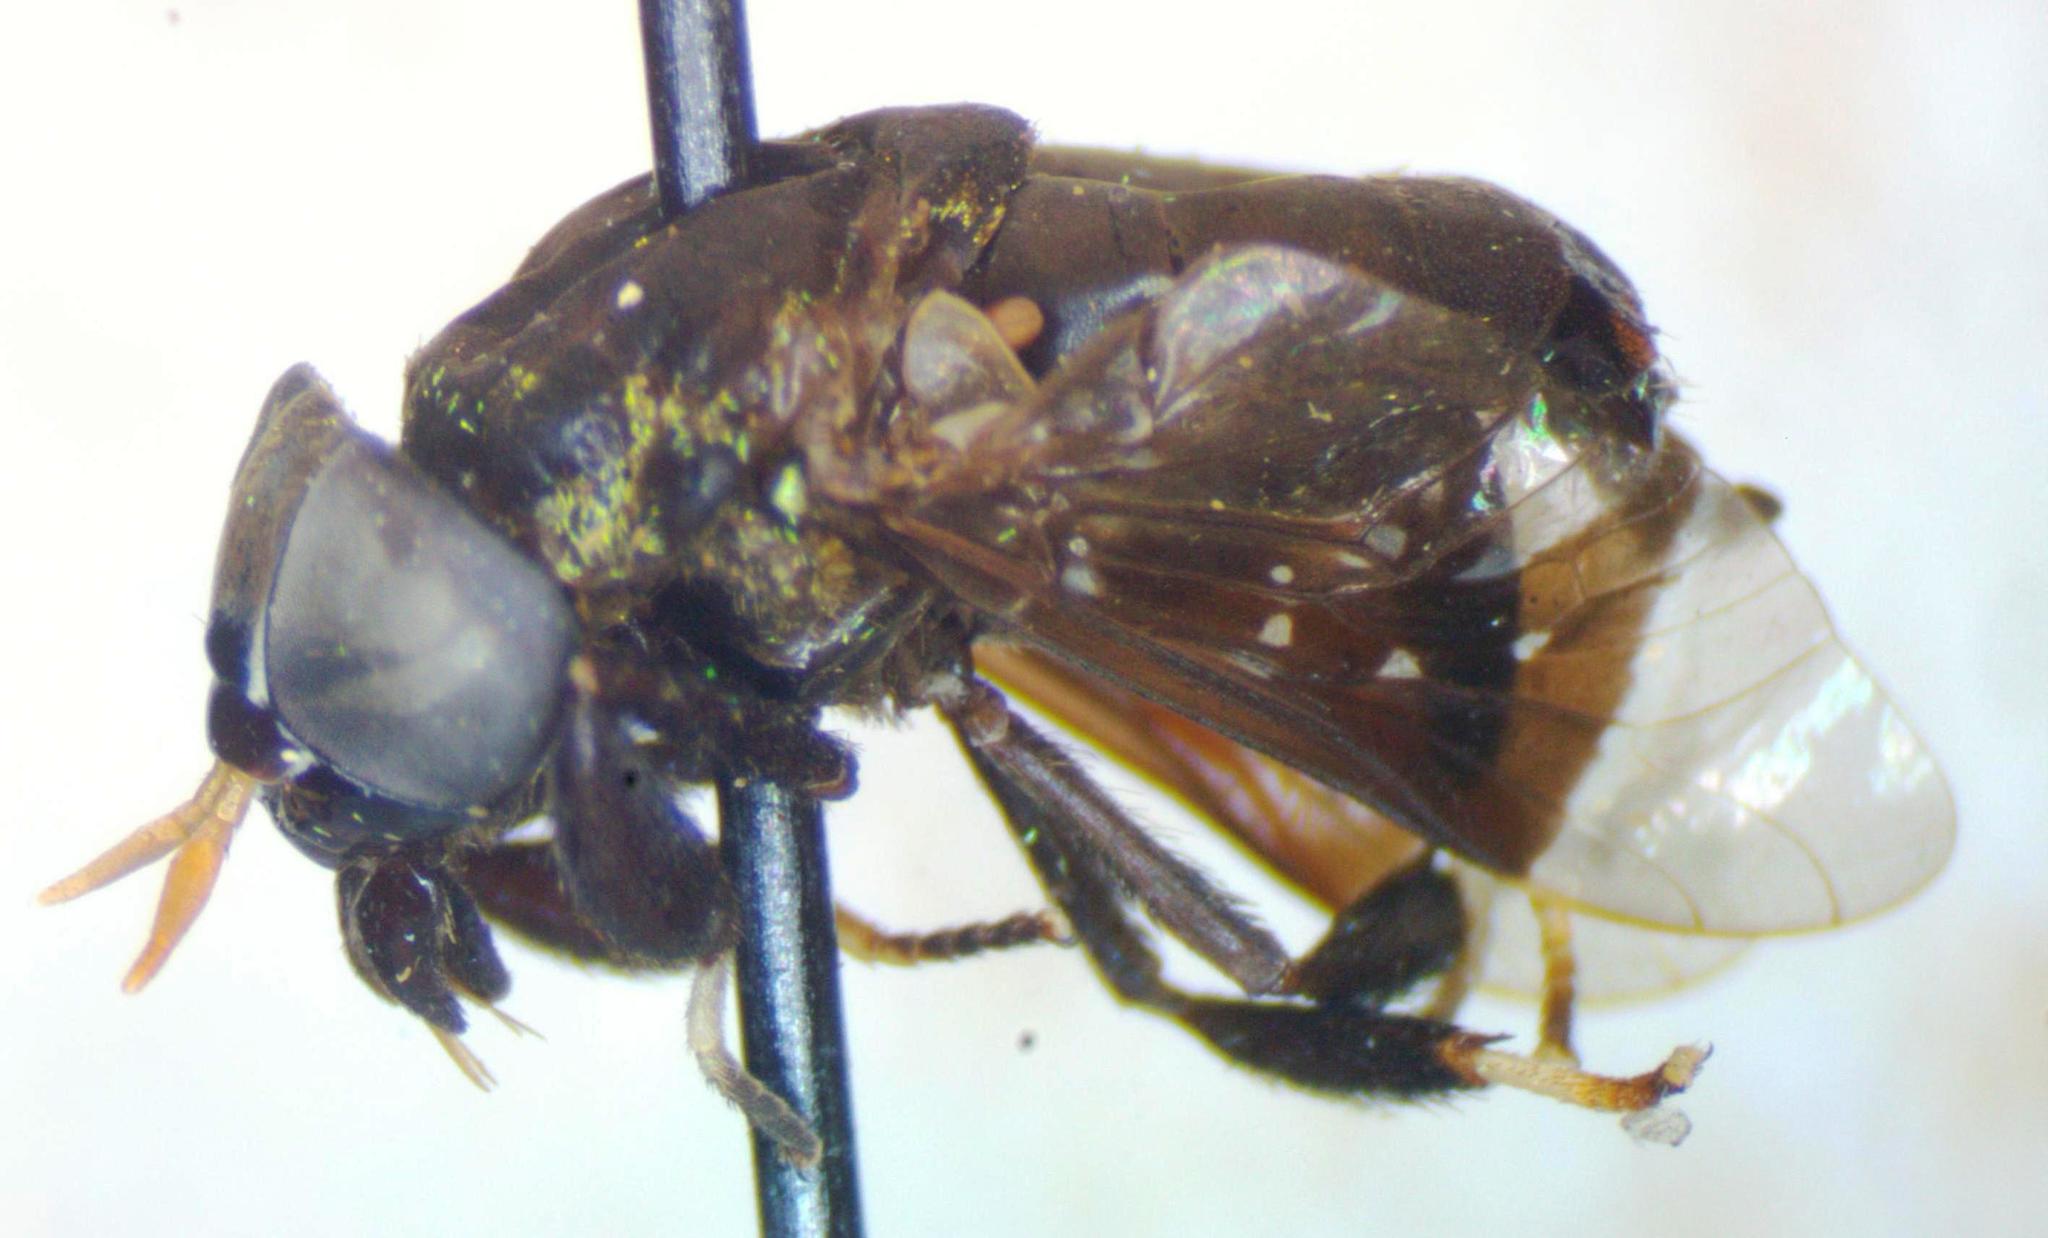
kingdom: Animalia
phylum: Arthropoda
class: Insecta
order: Diptera
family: Tabanidae
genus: Lepiselaga
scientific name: Lepiselaga crassipes
